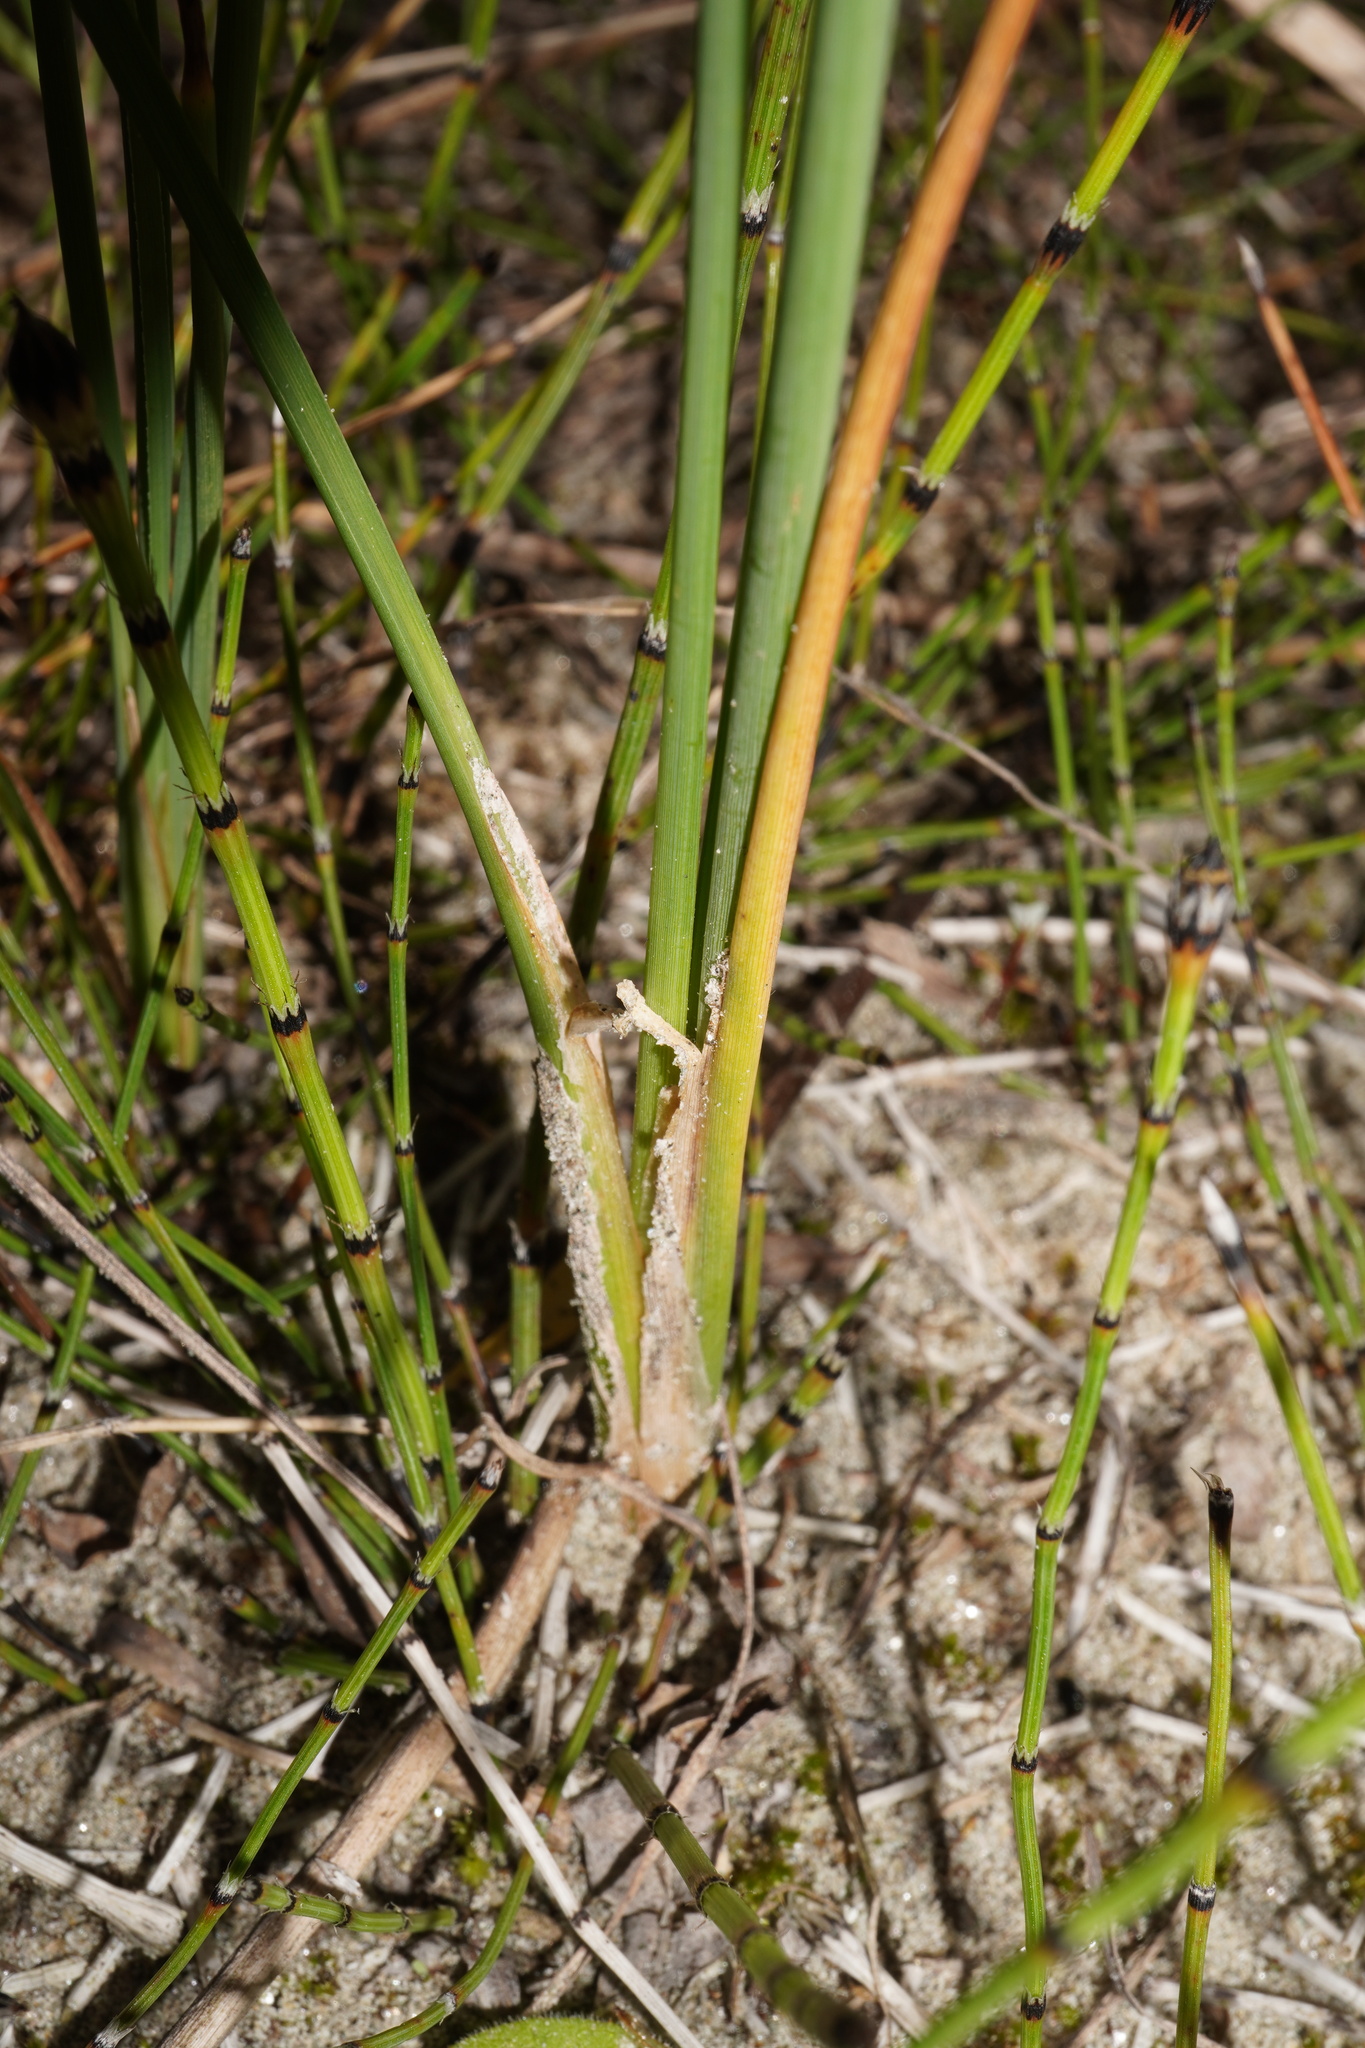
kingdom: Plantae
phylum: Tracheophyta
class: Liliopsida
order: Poales
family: Typhaceae
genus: Typha
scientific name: Typha minima
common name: Dwarf bulrush
